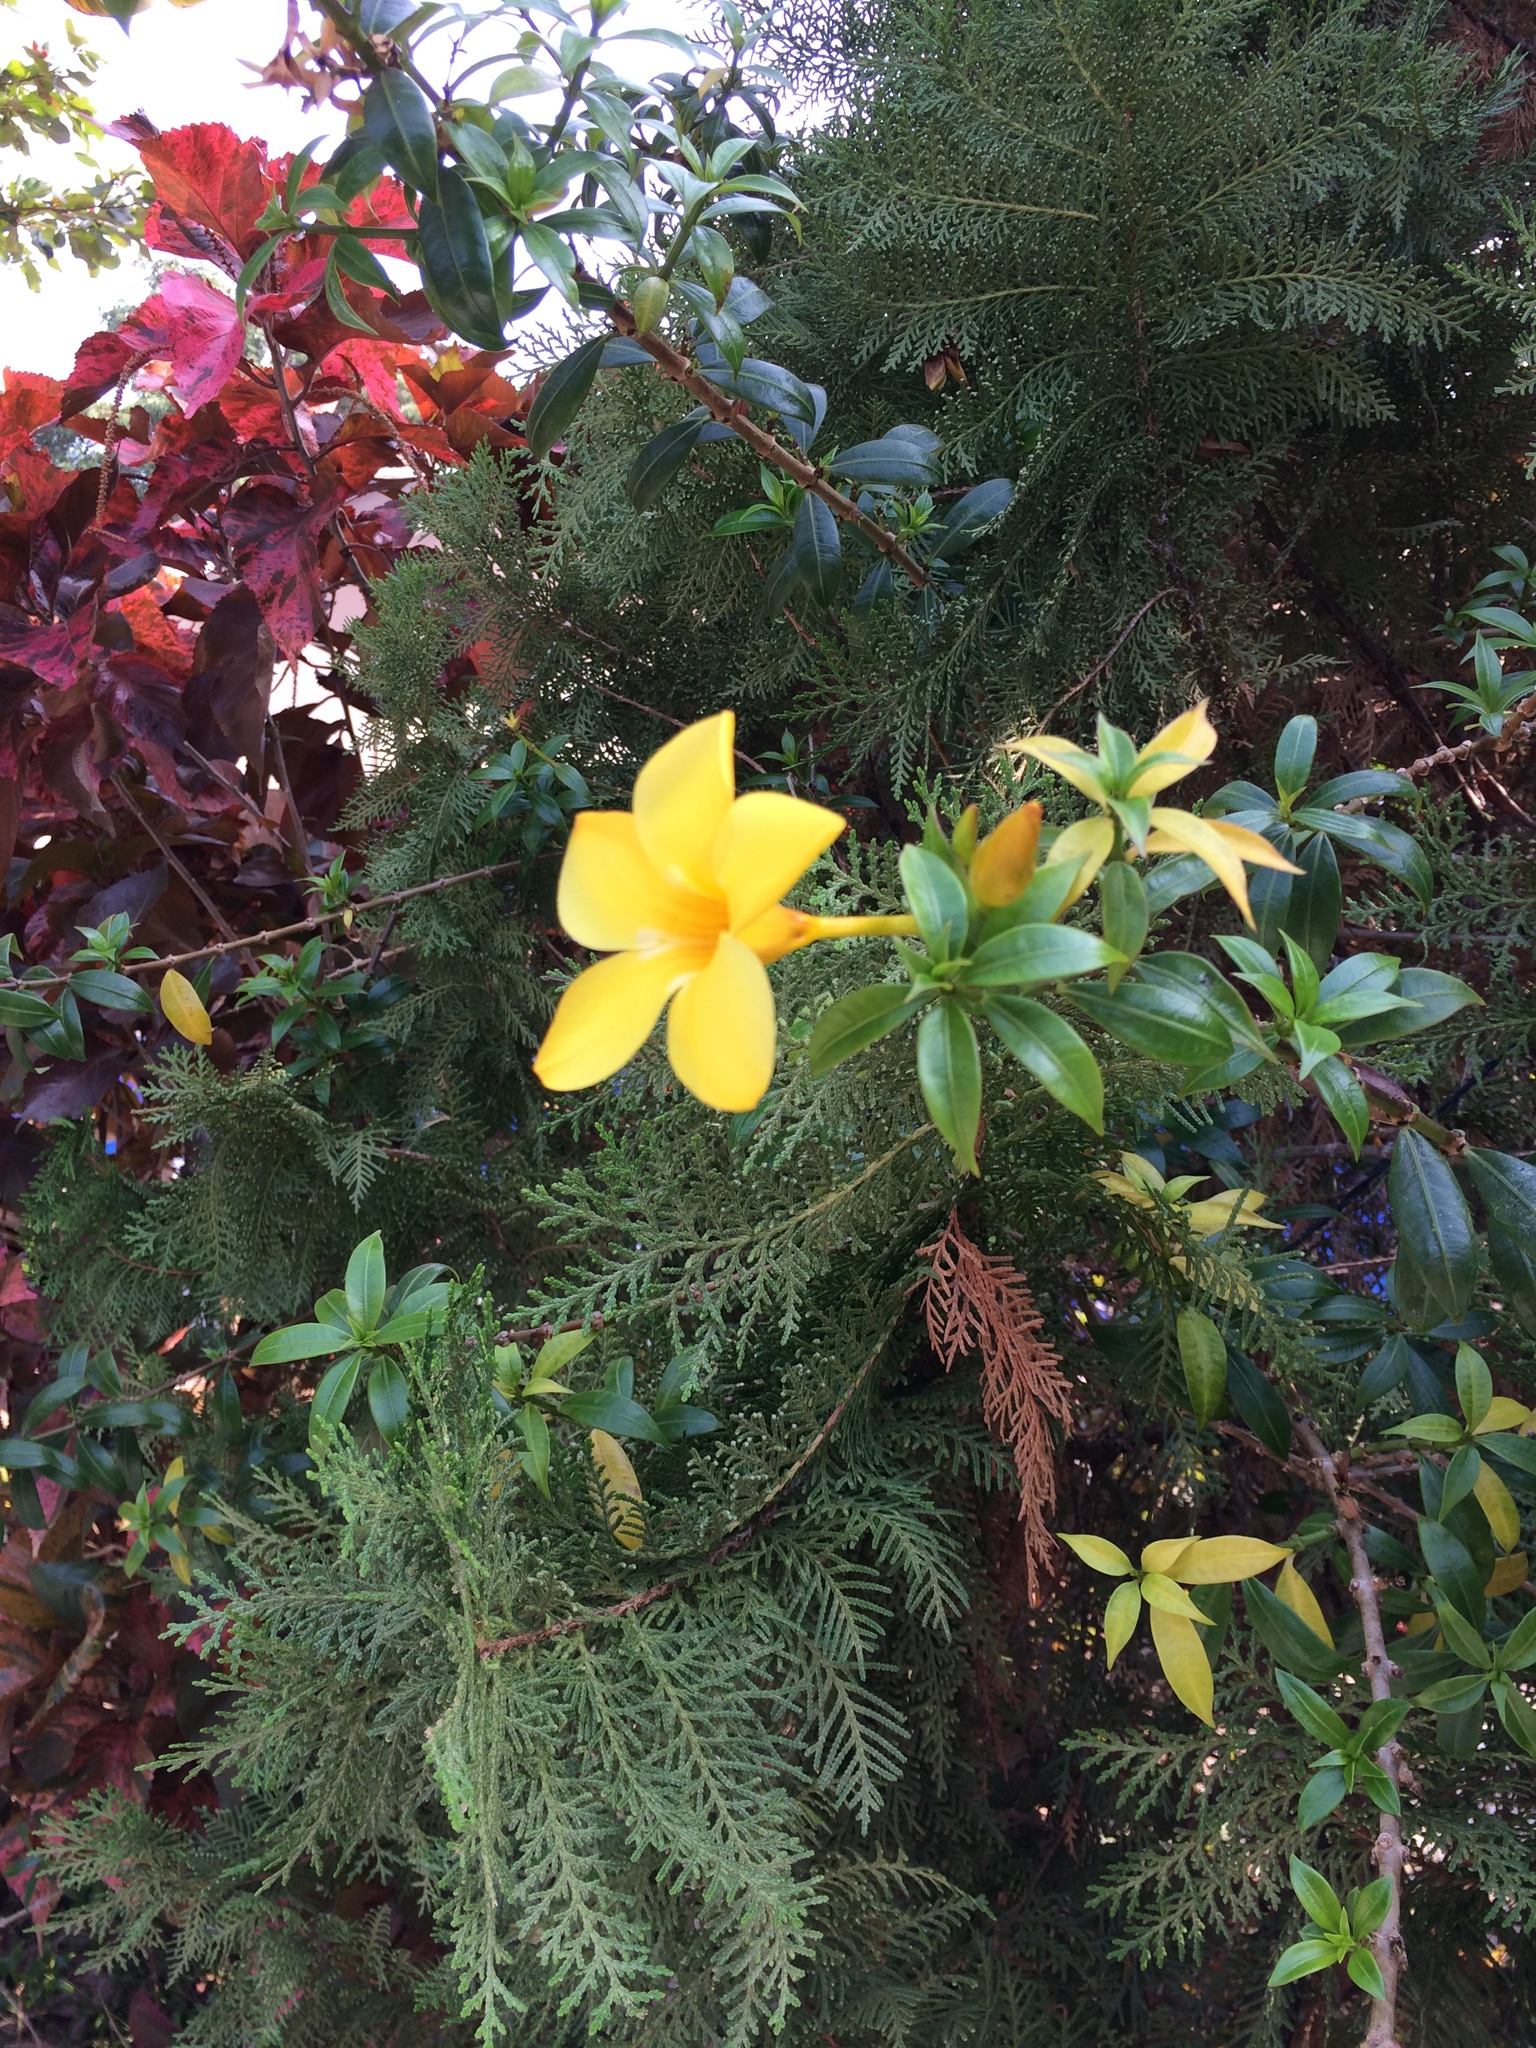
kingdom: Plantae
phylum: Tracheophyta
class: Magnoliopsida
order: Gentianales
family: Apocynaceae
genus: Allamanda
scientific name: Allamanda cathartica
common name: Golden trumpet
